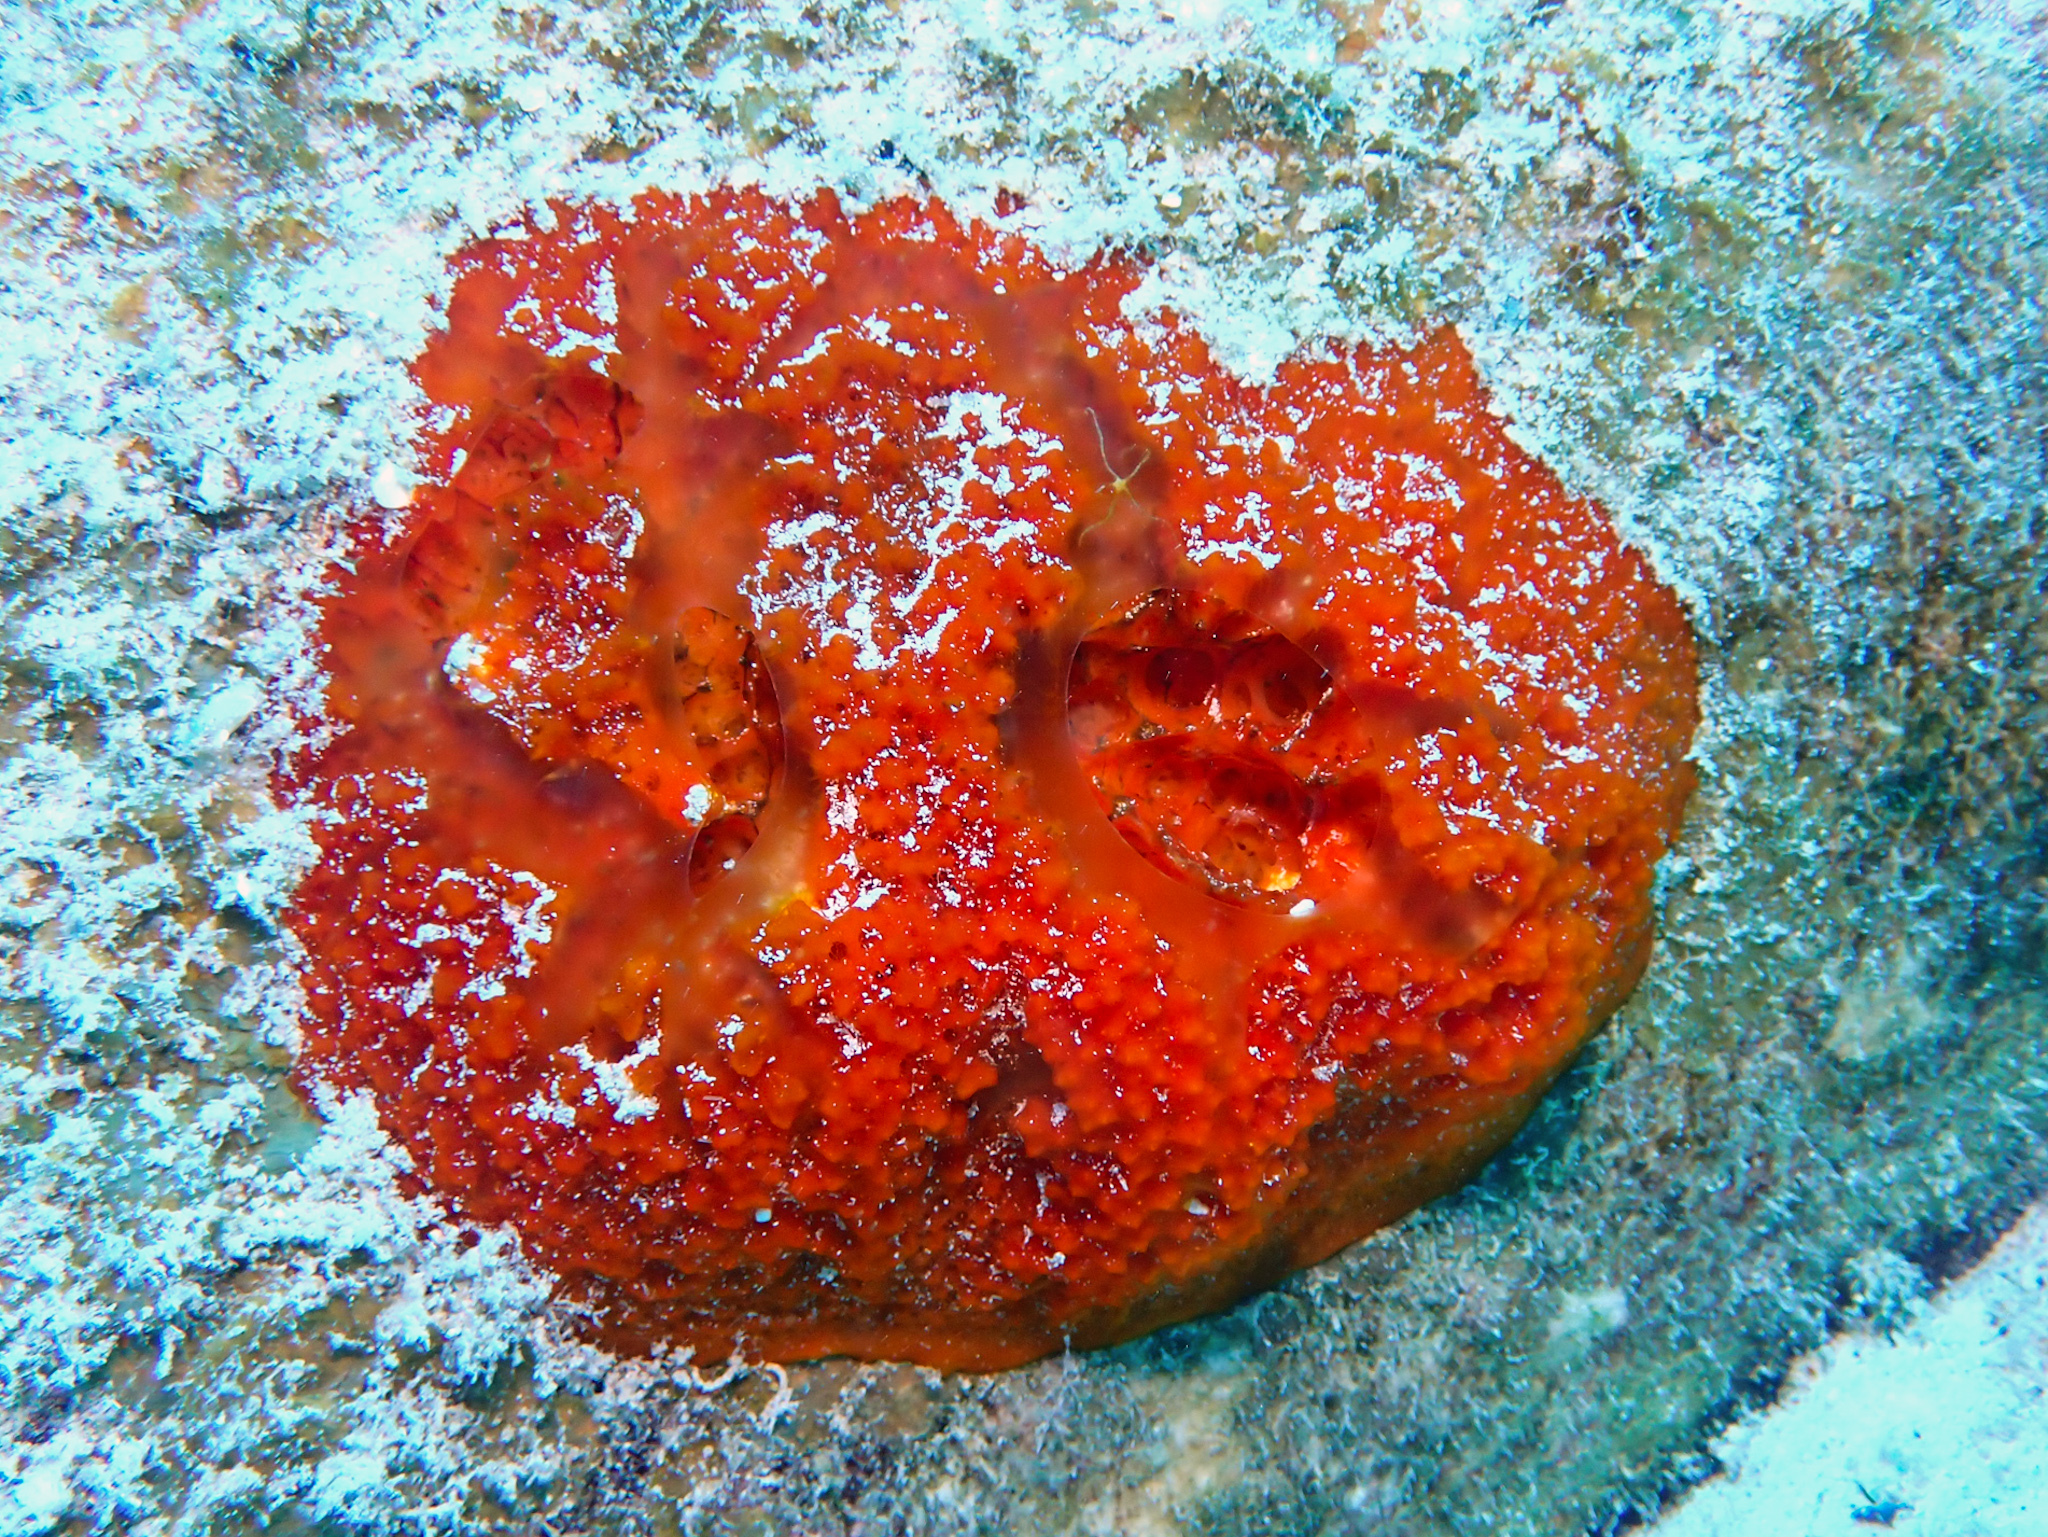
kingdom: Animalia
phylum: Porifera
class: Demospongiae
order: Poecilosclerida
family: Mycalidae
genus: Mycale
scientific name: Mycale laxissima
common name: Strawberry vase sponge
